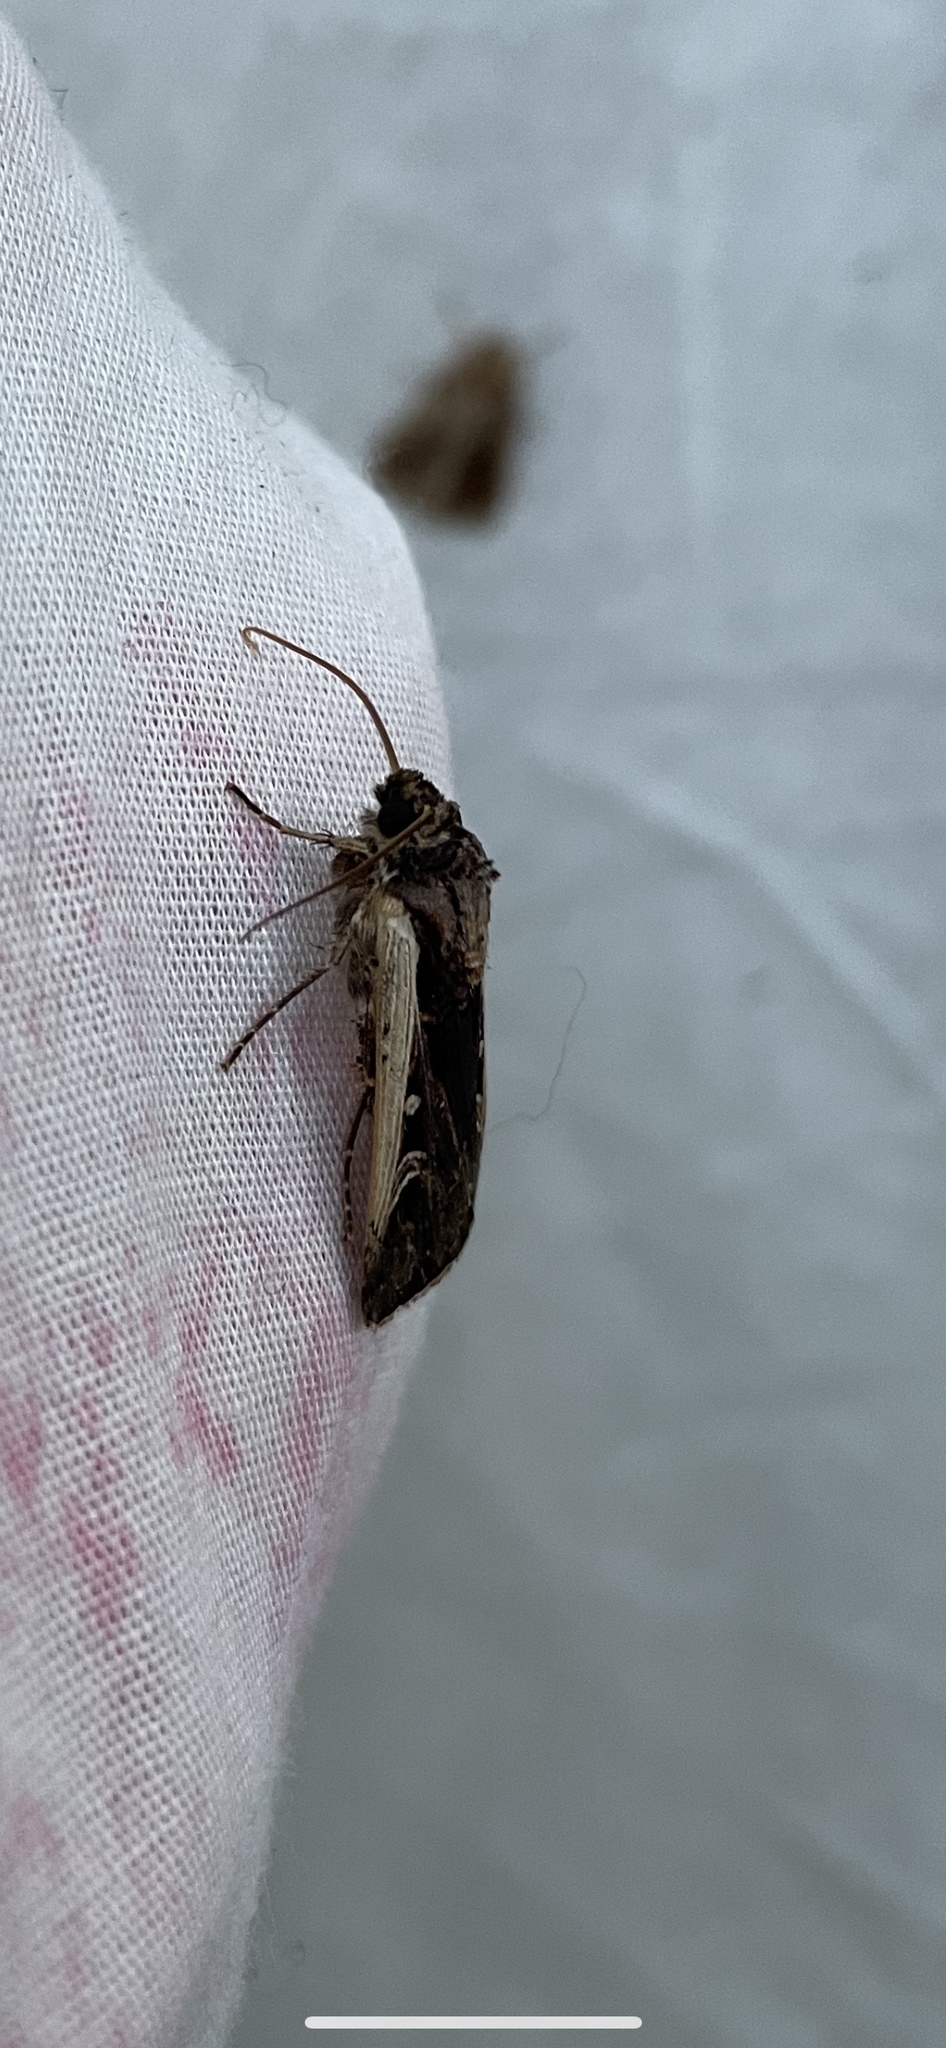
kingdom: Animalia
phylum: Arthropoda
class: Insecta
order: Lepidoptera
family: Noctuidae
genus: Striacosta
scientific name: Striacosta albicosta
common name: Western bean cutworm moth
